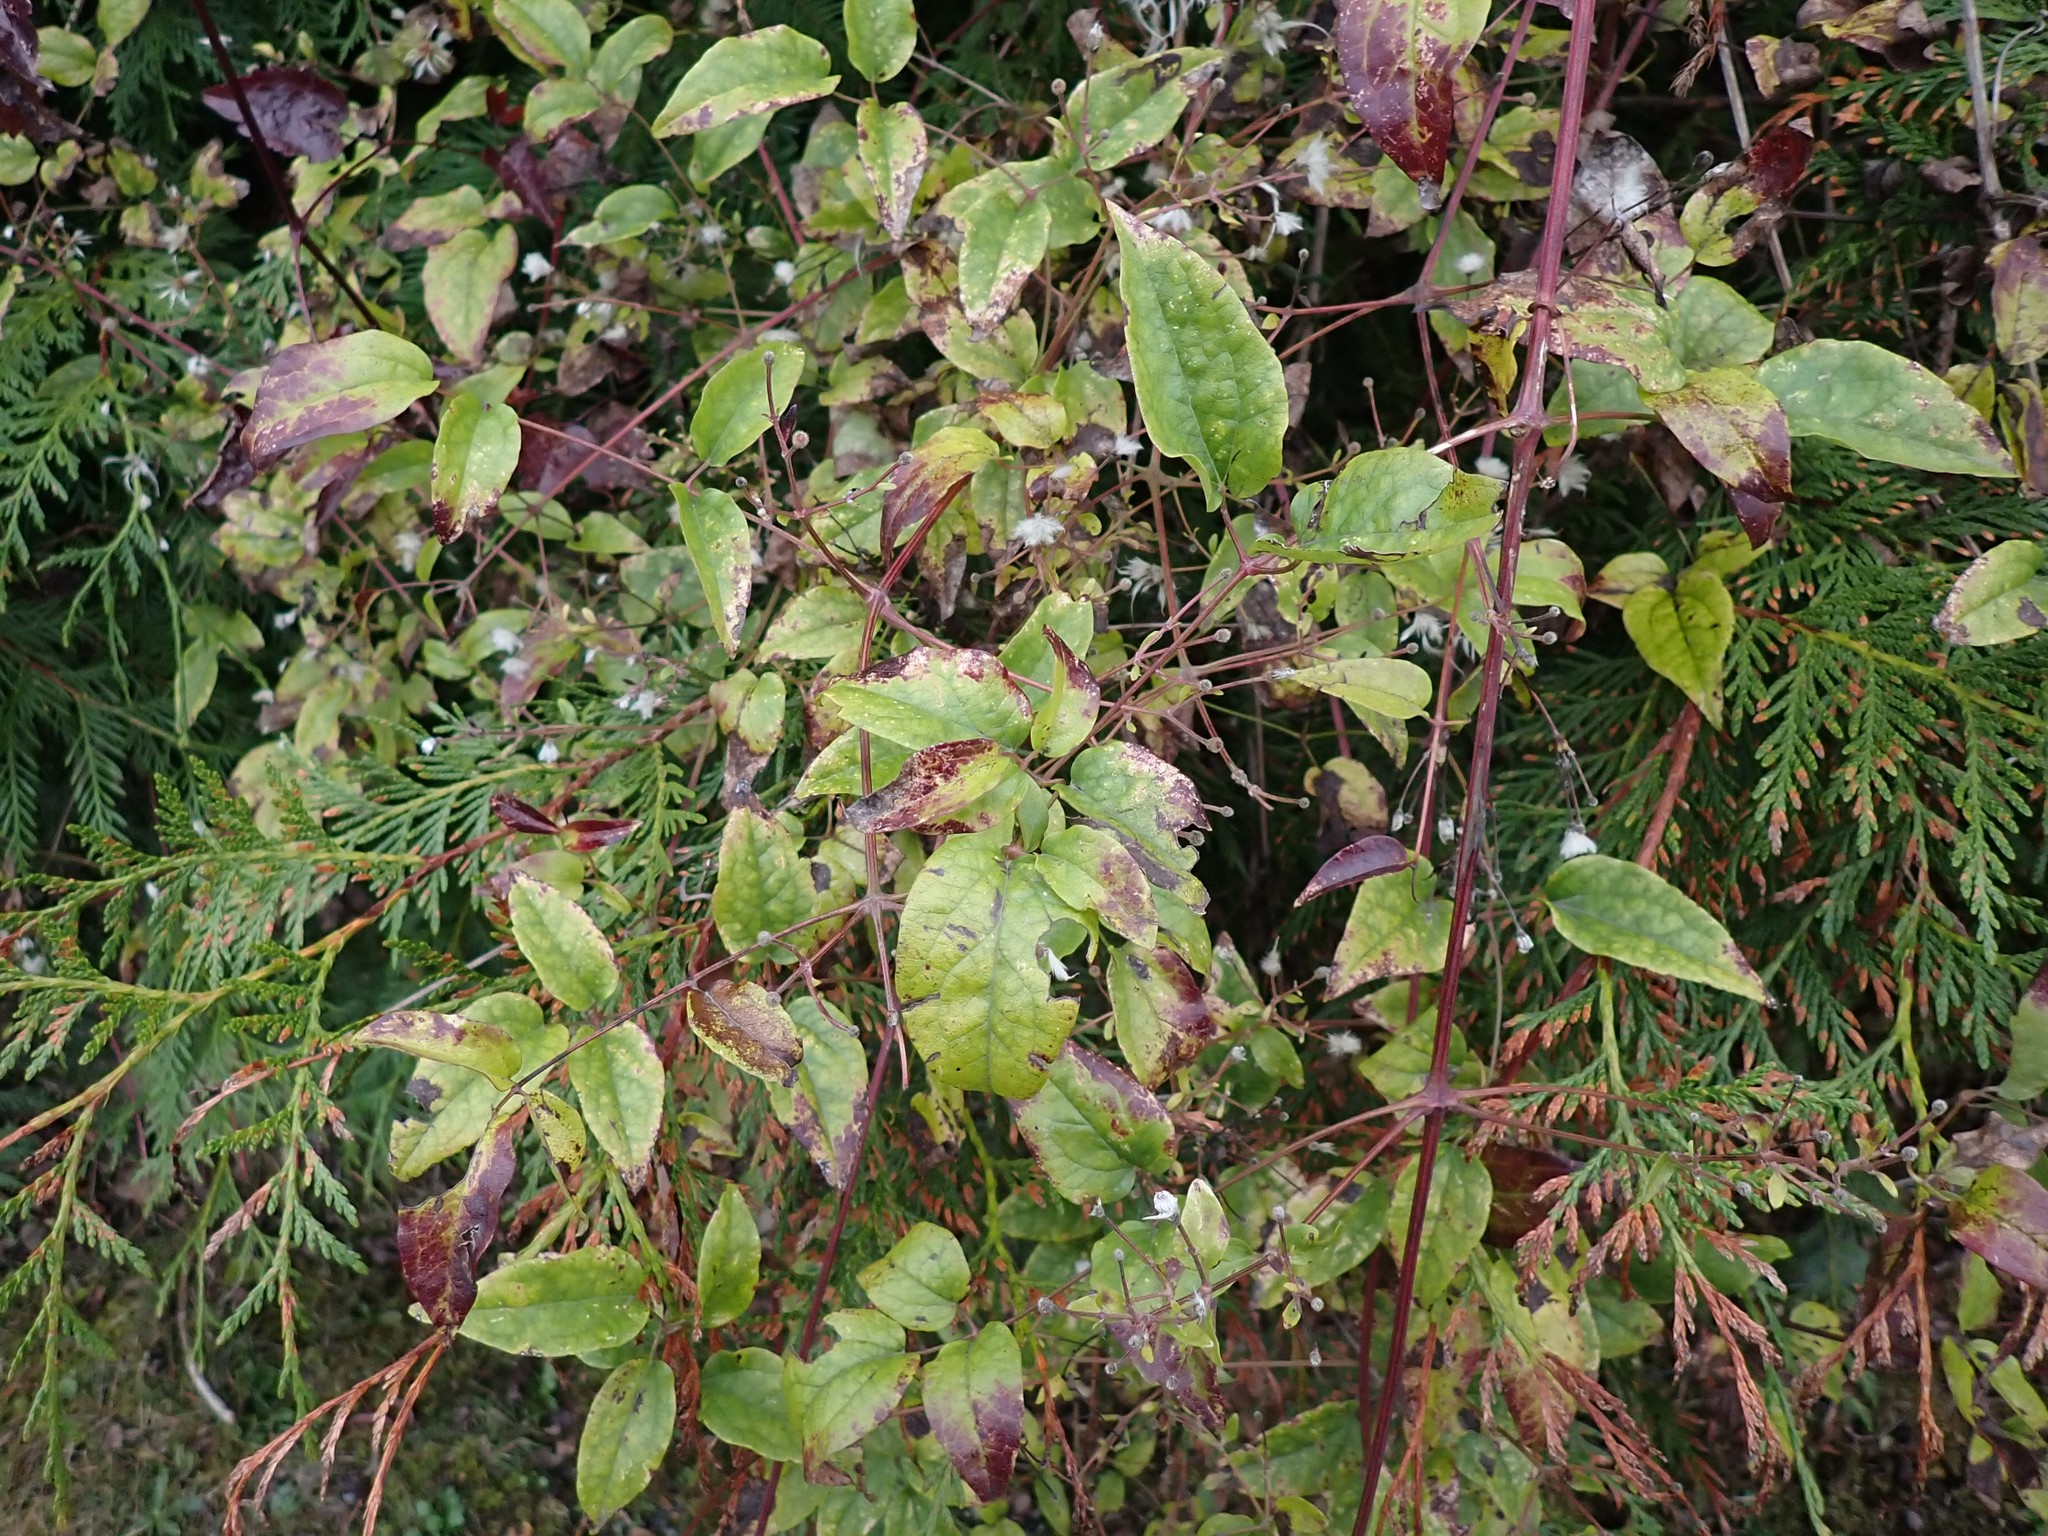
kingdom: Plantae
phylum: Tracheophyta
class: Magnoliopsida
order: Ranunculales
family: Ranunculaceae
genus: Clematis
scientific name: Clematis vitalba
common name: Evergreen clematis
